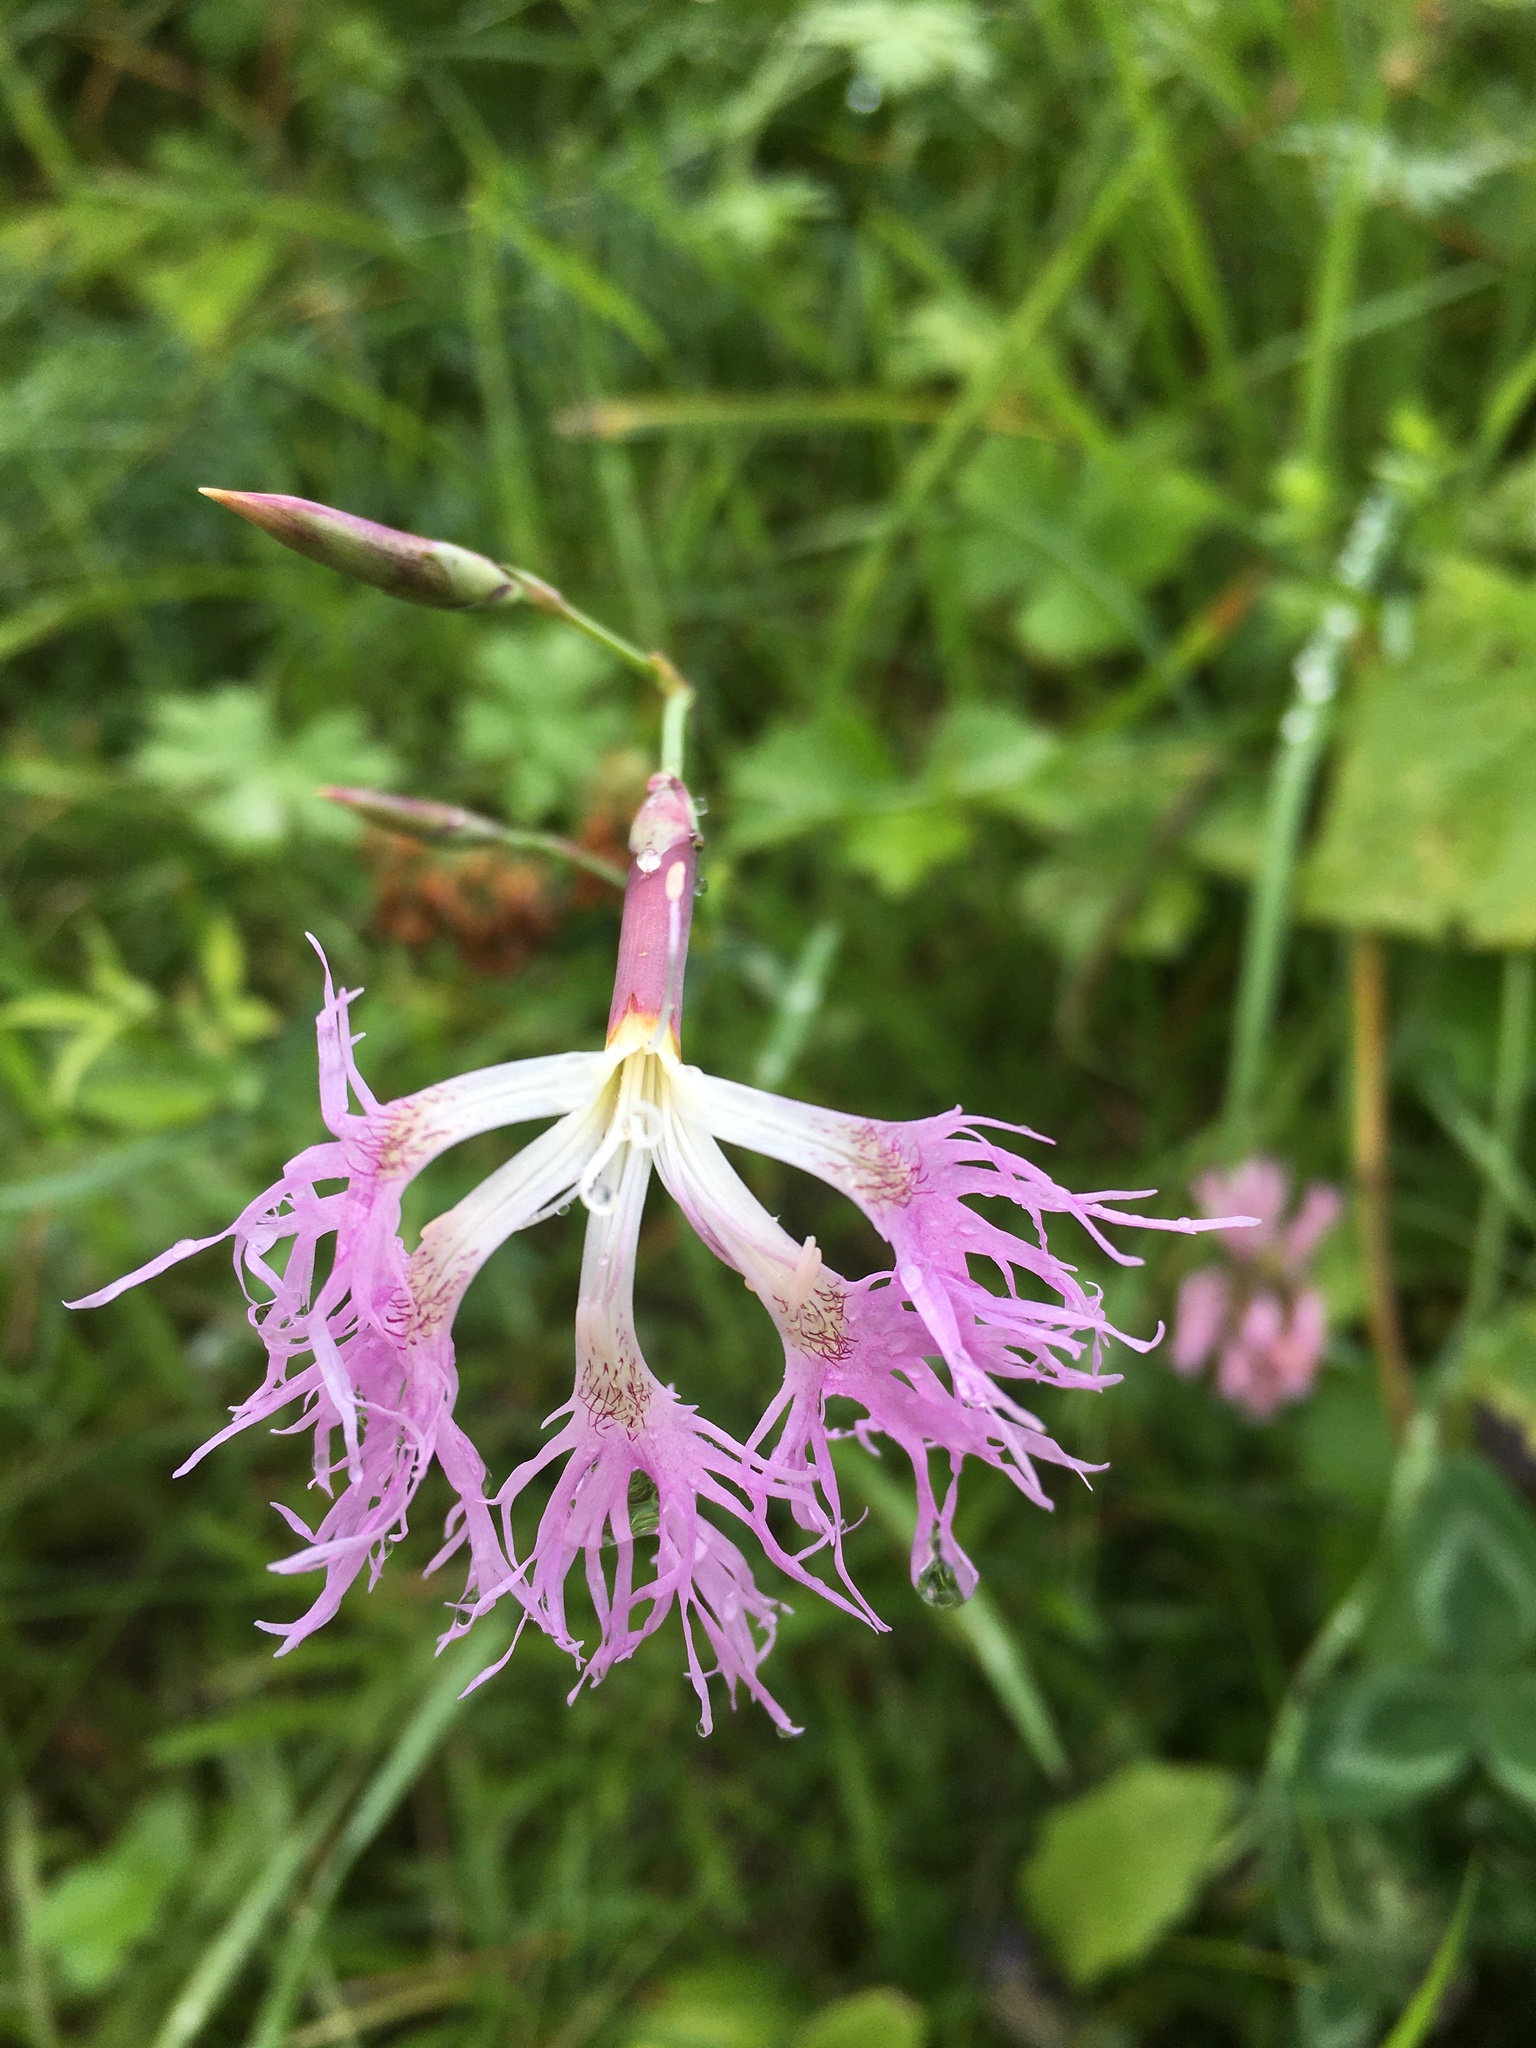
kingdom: Plantae
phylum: Tracheophyta
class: Magnoliopsida
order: Caryophyllales
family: Caryophyllaceae
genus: Dianthus
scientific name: Dianthus superbus
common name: Fringed pink
